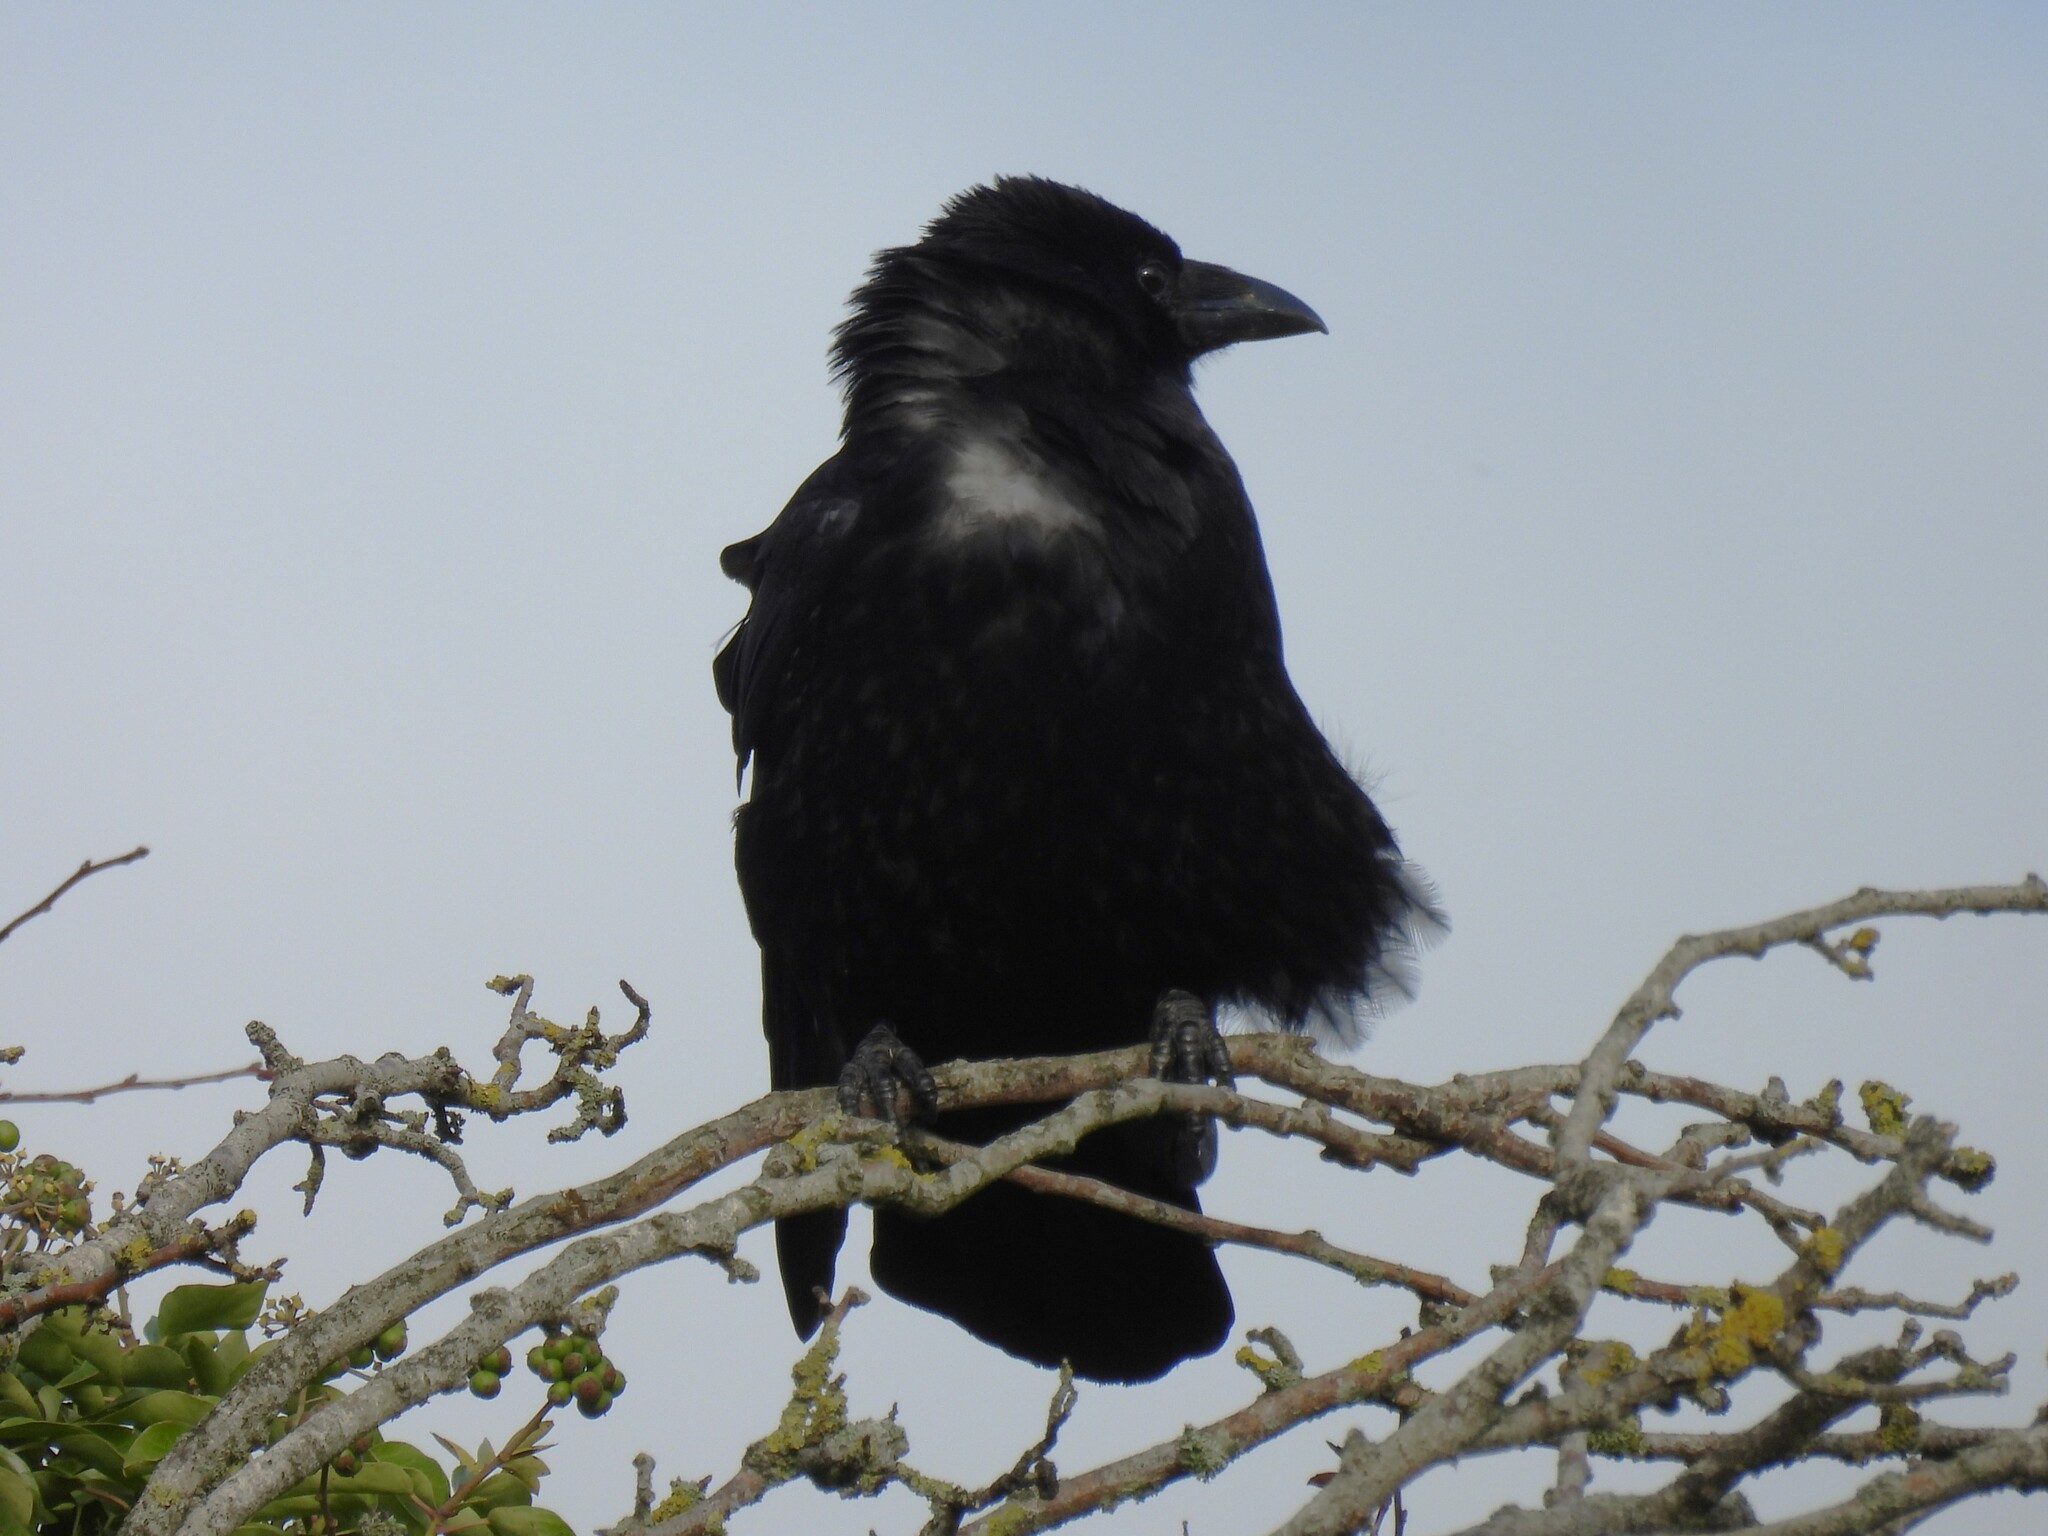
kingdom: Animalia
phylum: Chordata
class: Aves
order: Passeriformes
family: Corvidae
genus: Corvus
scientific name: Corvus corone
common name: Carrion crow
